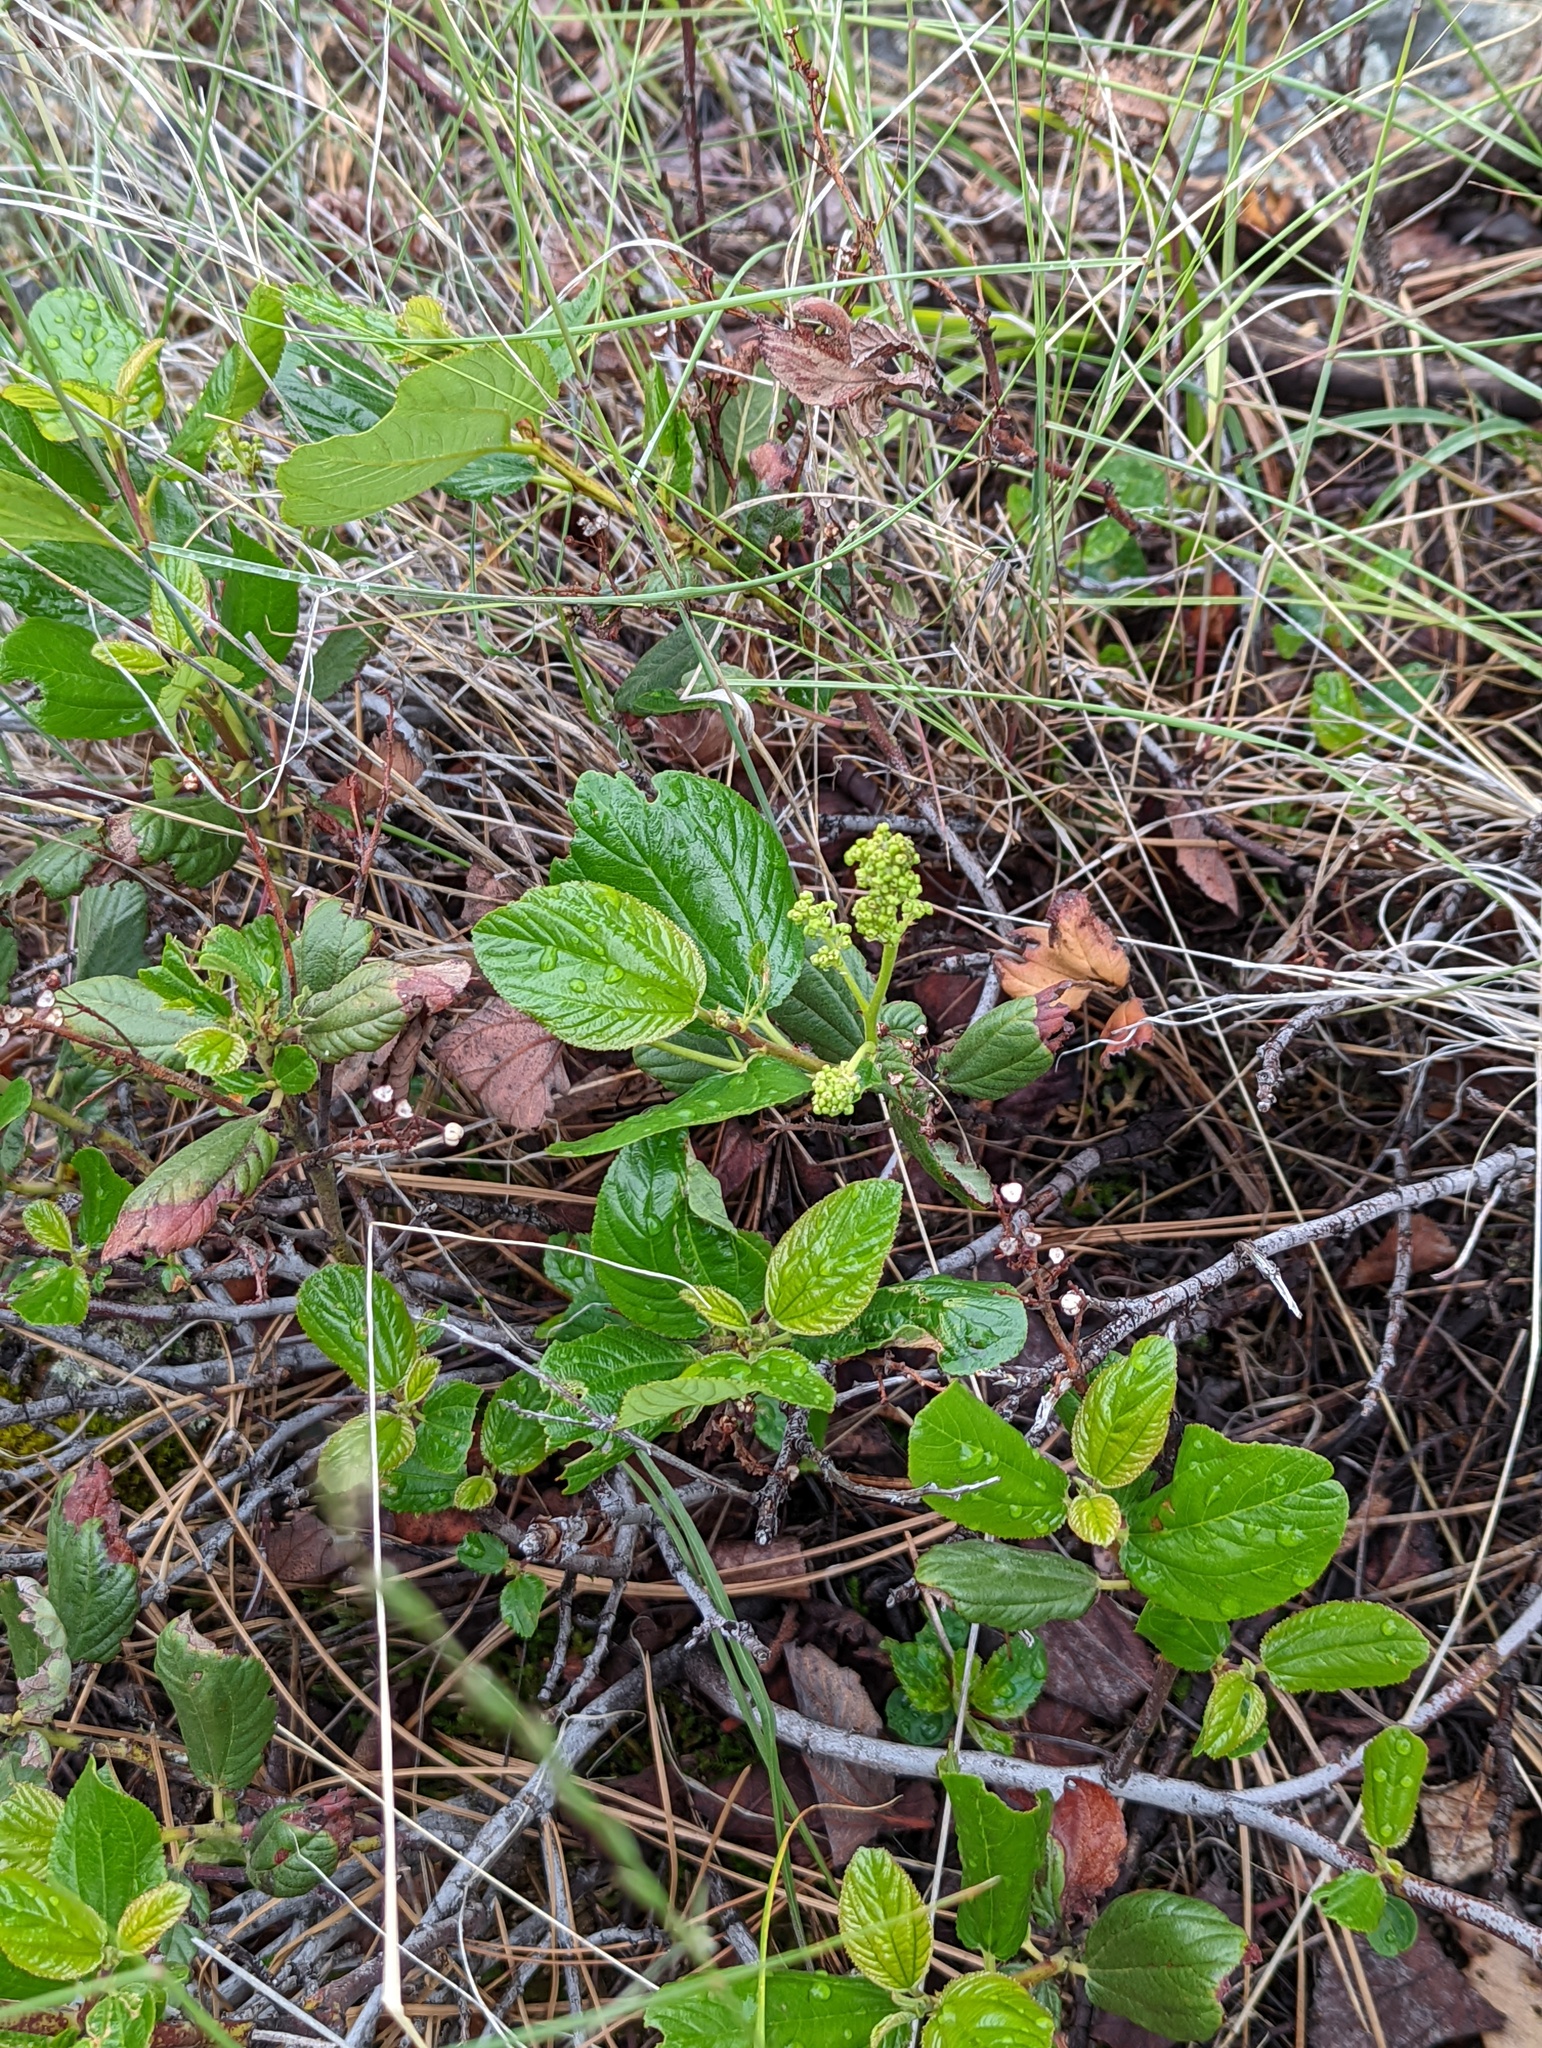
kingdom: Plantae
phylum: Tracheophyta
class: Magnoliopsida
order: Rosales
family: Rosaceae
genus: Prunus
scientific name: Prunus virginiana
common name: Chokecherry
